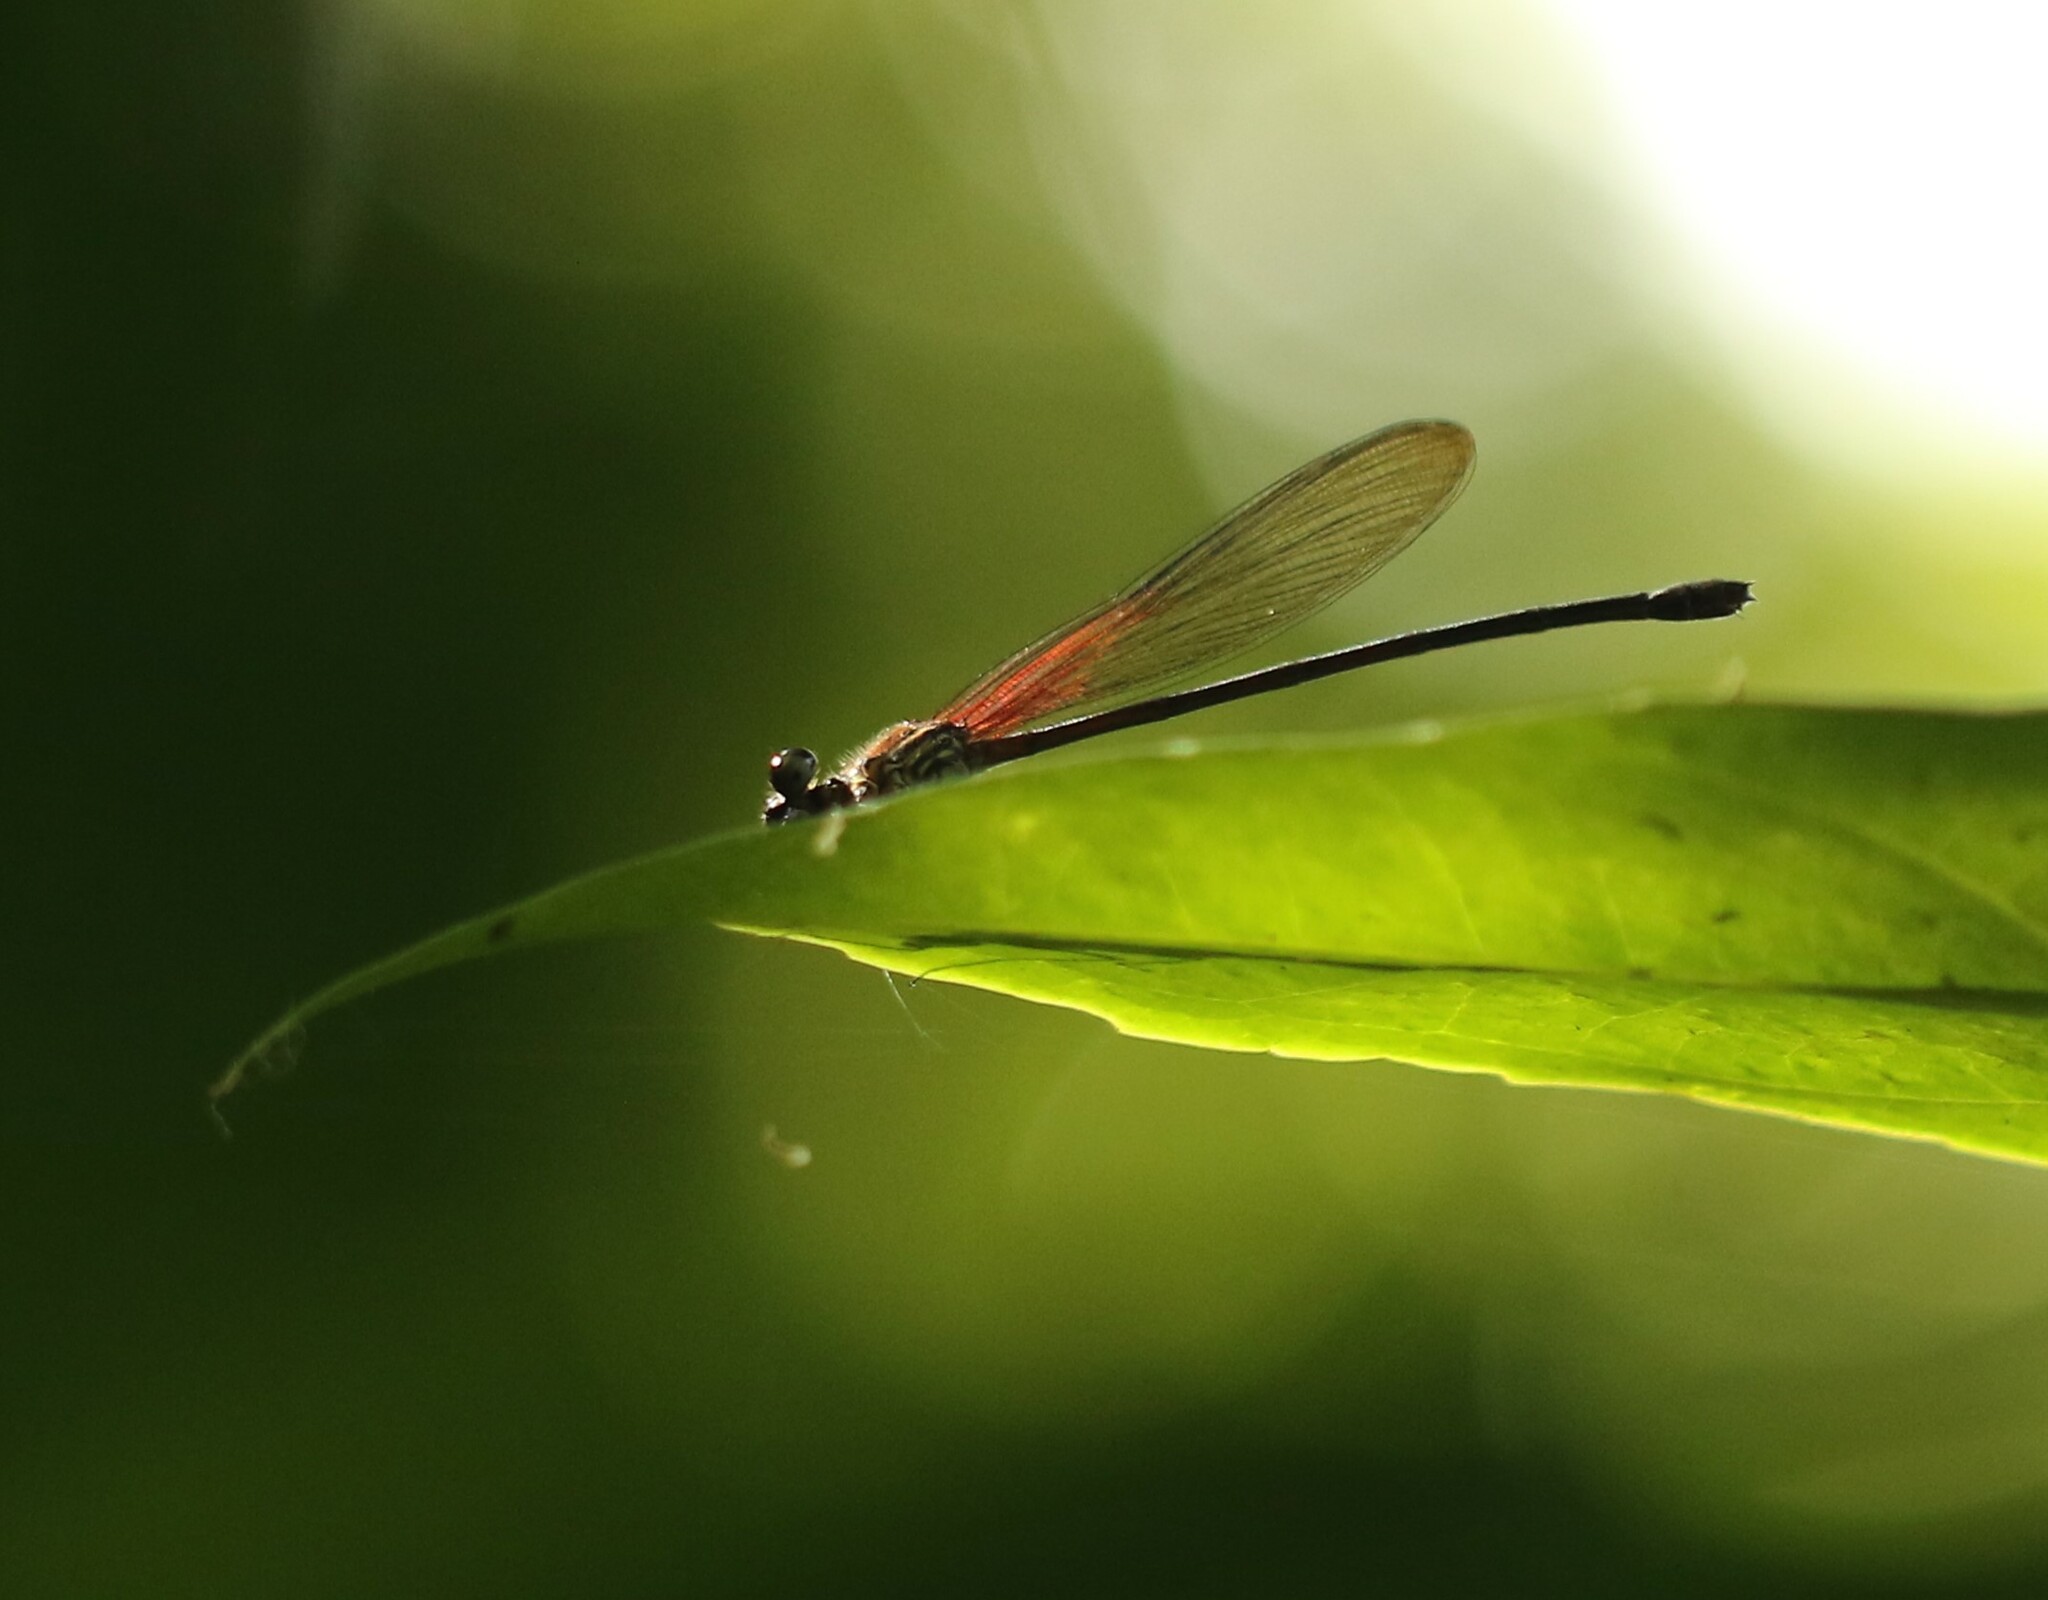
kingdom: Animalia
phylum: Arthropoda
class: Insecta
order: Odonata
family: Calopterygidae
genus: Hetaerina
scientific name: Hetaerina miniata
